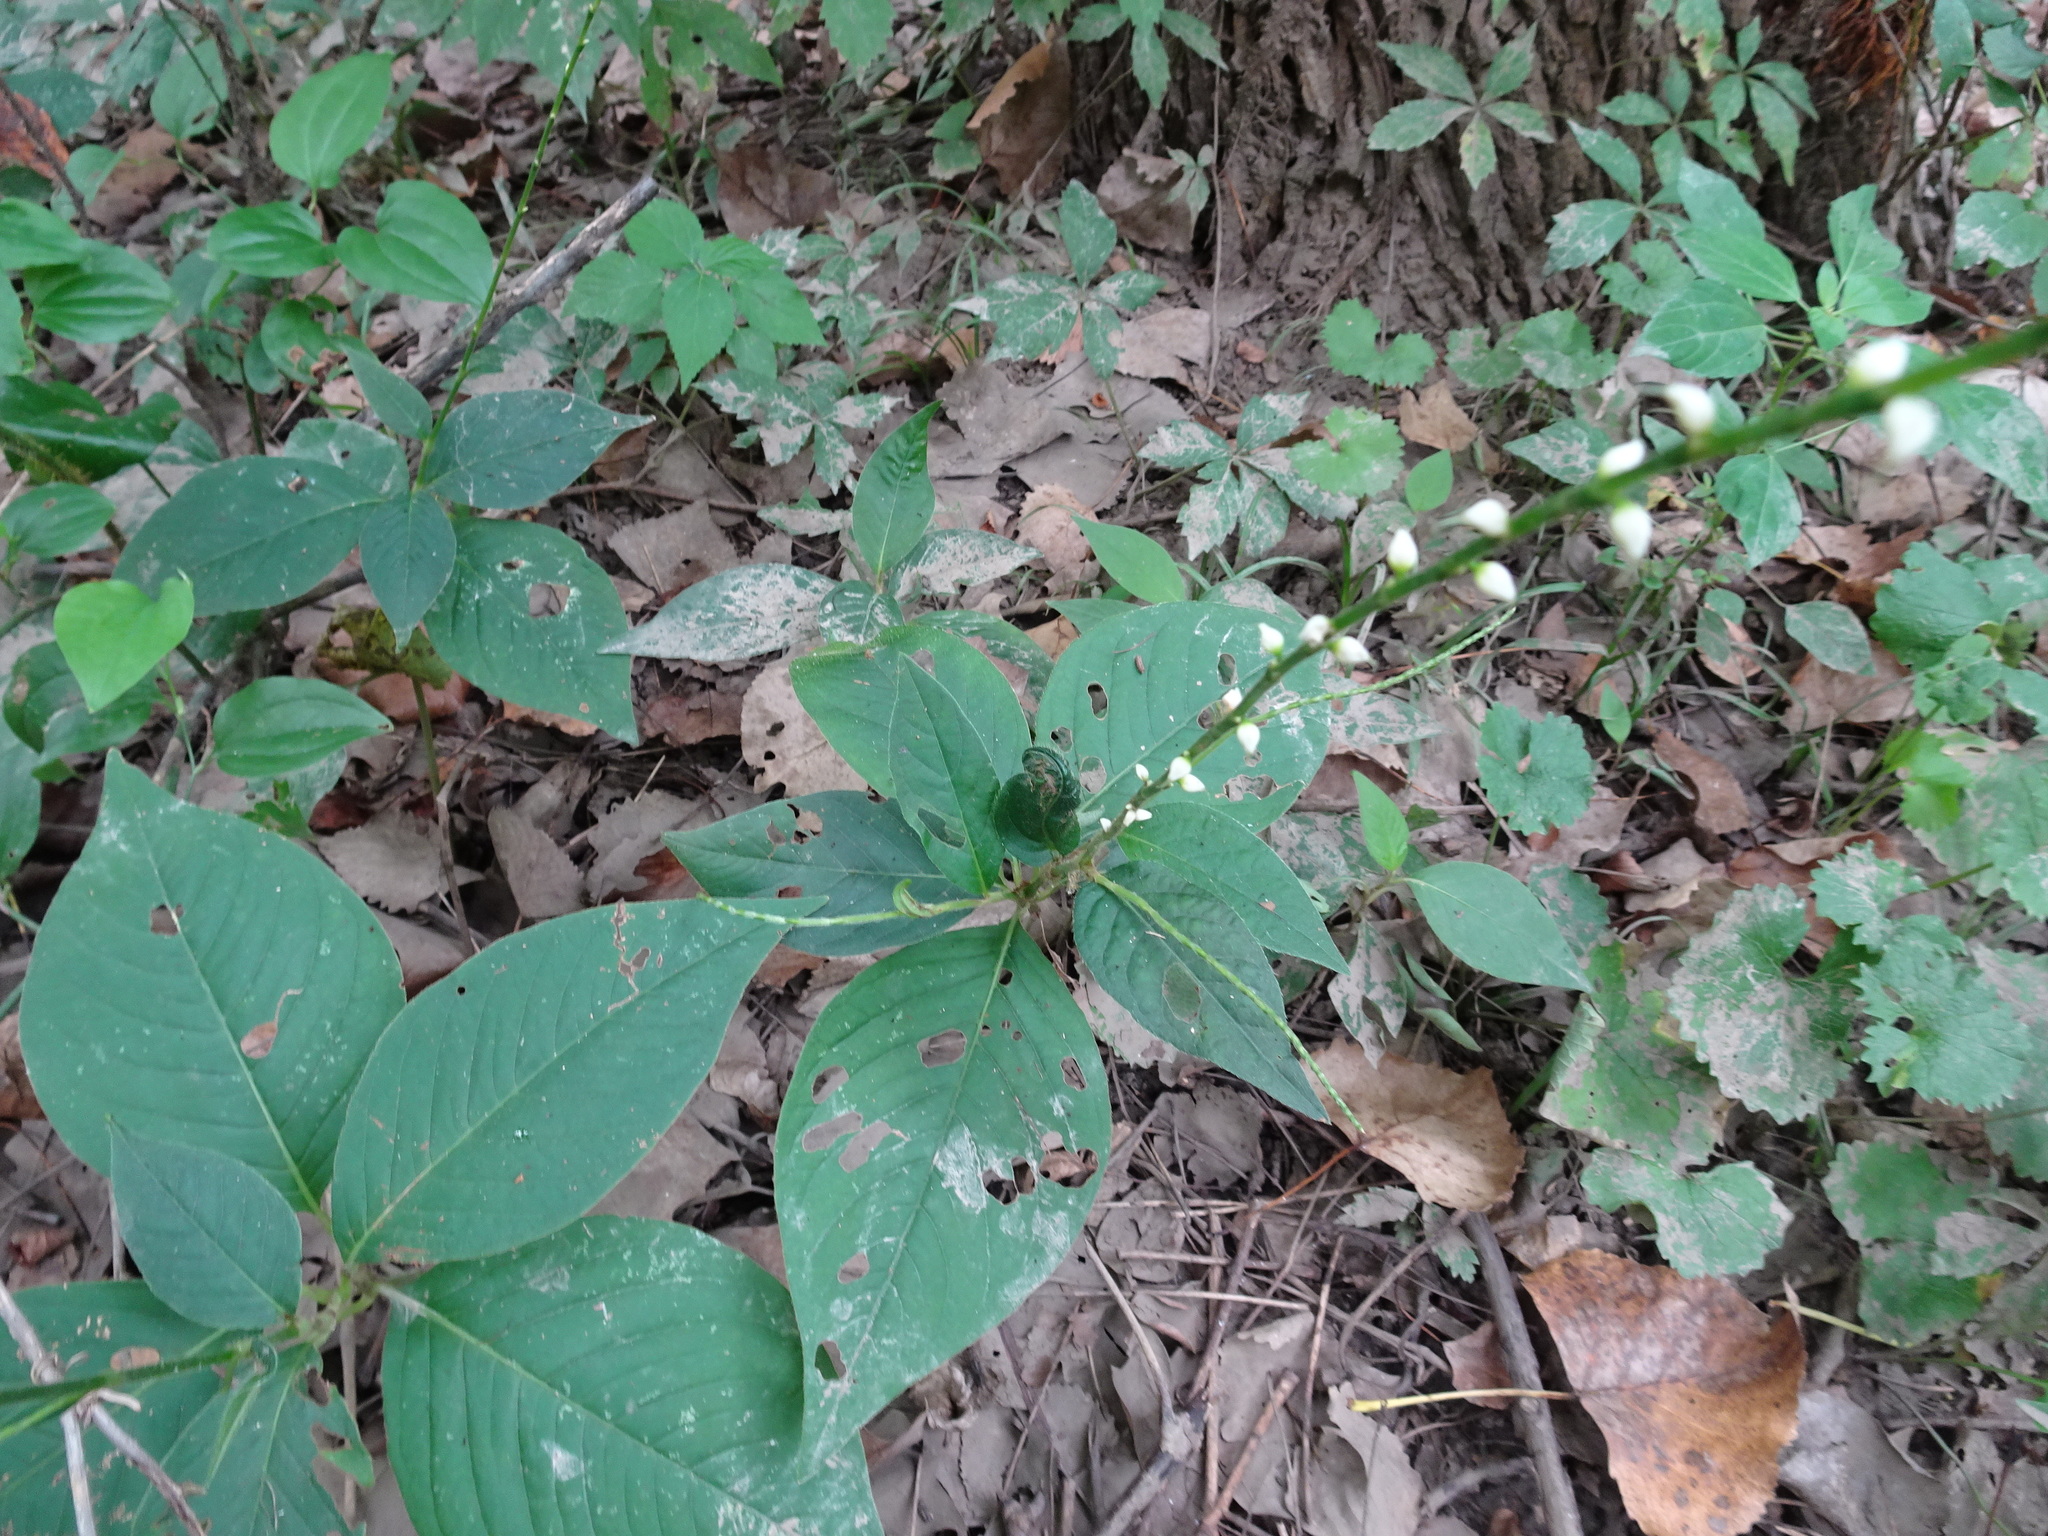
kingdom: Plantae
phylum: Tracheophyta
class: Magnoliopsida
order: Caryophyllales
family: Polygonaceae
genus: Persicaria
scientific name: Persicaria virginiana
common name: Jumpseed
